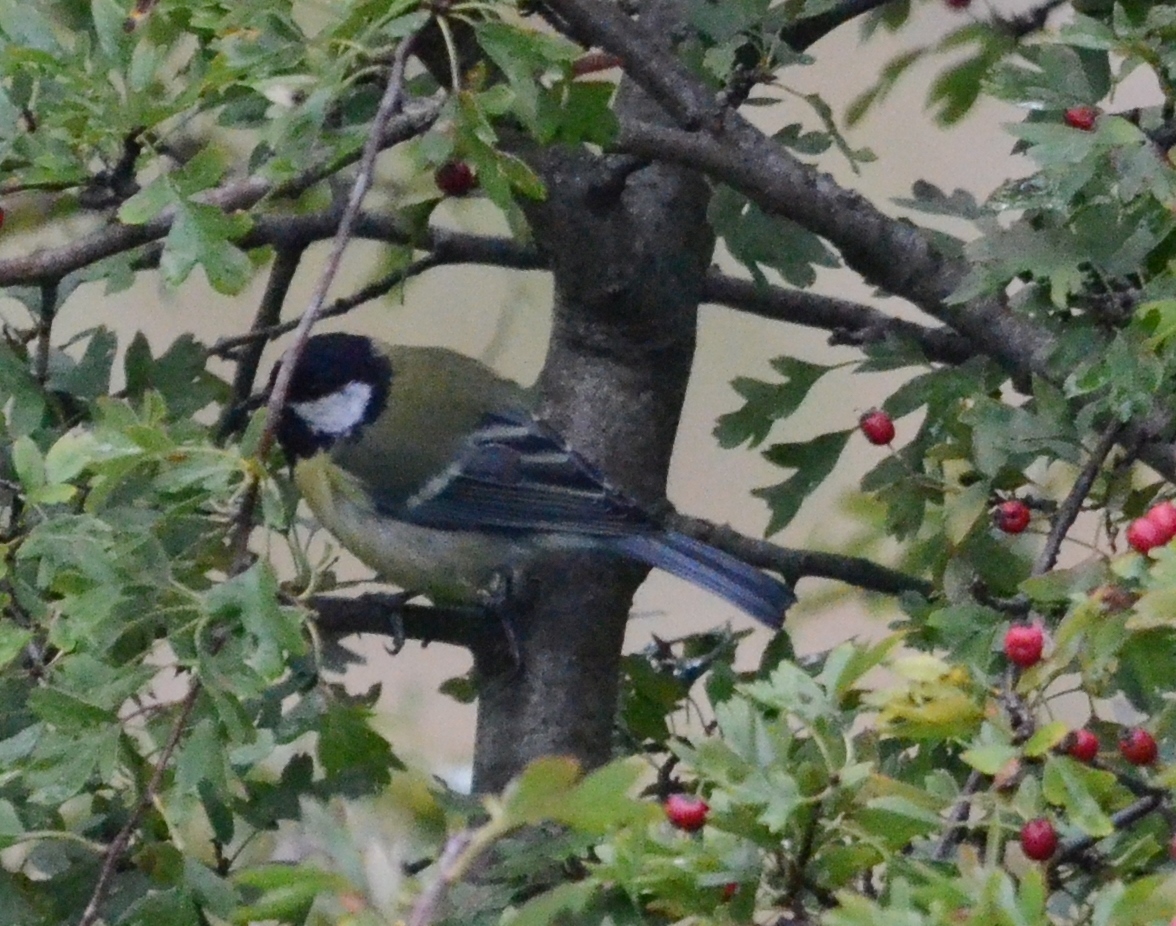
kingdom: Animalia
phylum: Chordata
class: Aves
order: Passeriformes
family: Paridae
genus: Parus
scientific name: Parus major
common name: Great tit
